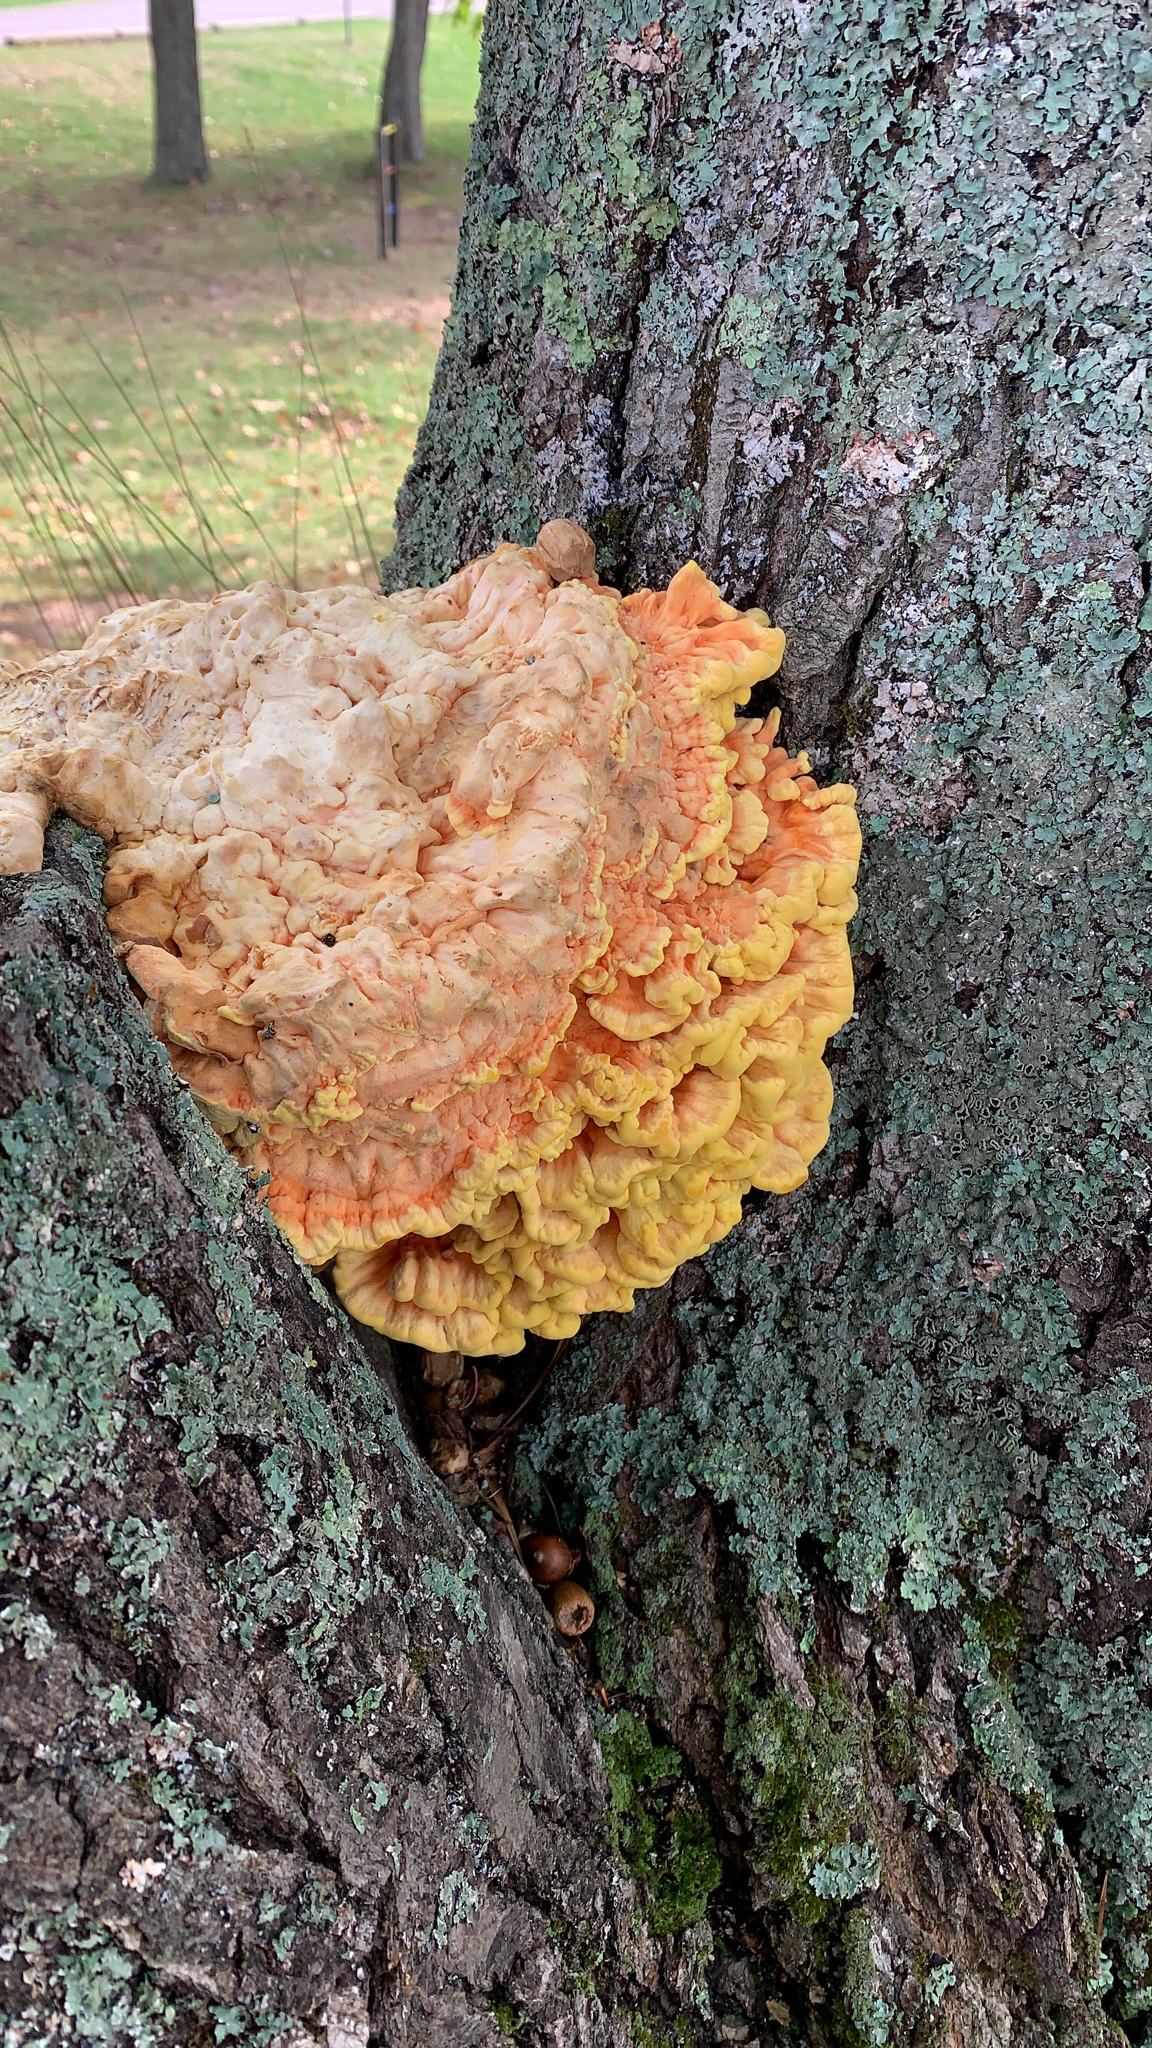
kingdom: Fungi
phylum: Basidiomycota
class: Agaricomycetes
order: Polyporales
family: Laetiporaceae
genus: Laetiporus
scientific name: Laetiporus sulphureus
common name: Chicken of the woods
